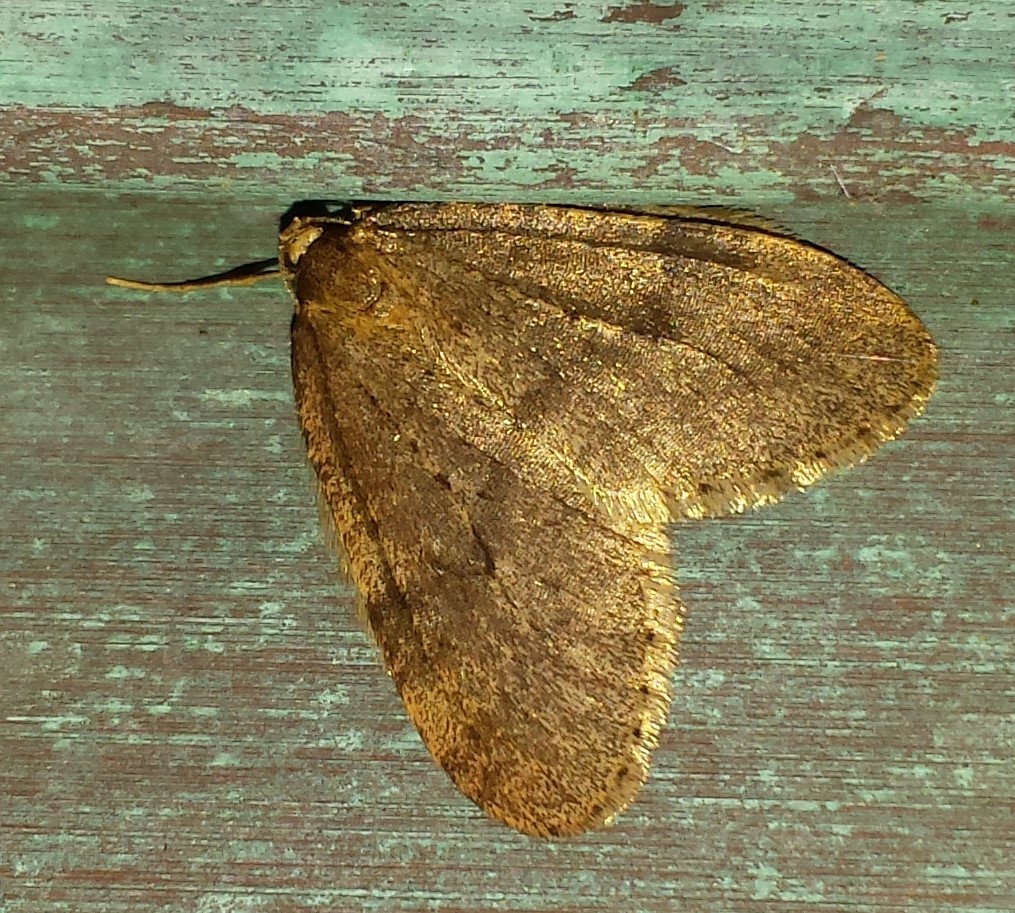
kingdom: Animalia
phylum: Arthropoda
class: Insecta
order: Lepidoptera
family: Geometridae
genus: Operophtera
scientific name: Operophtera brumata
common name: Winter moth
